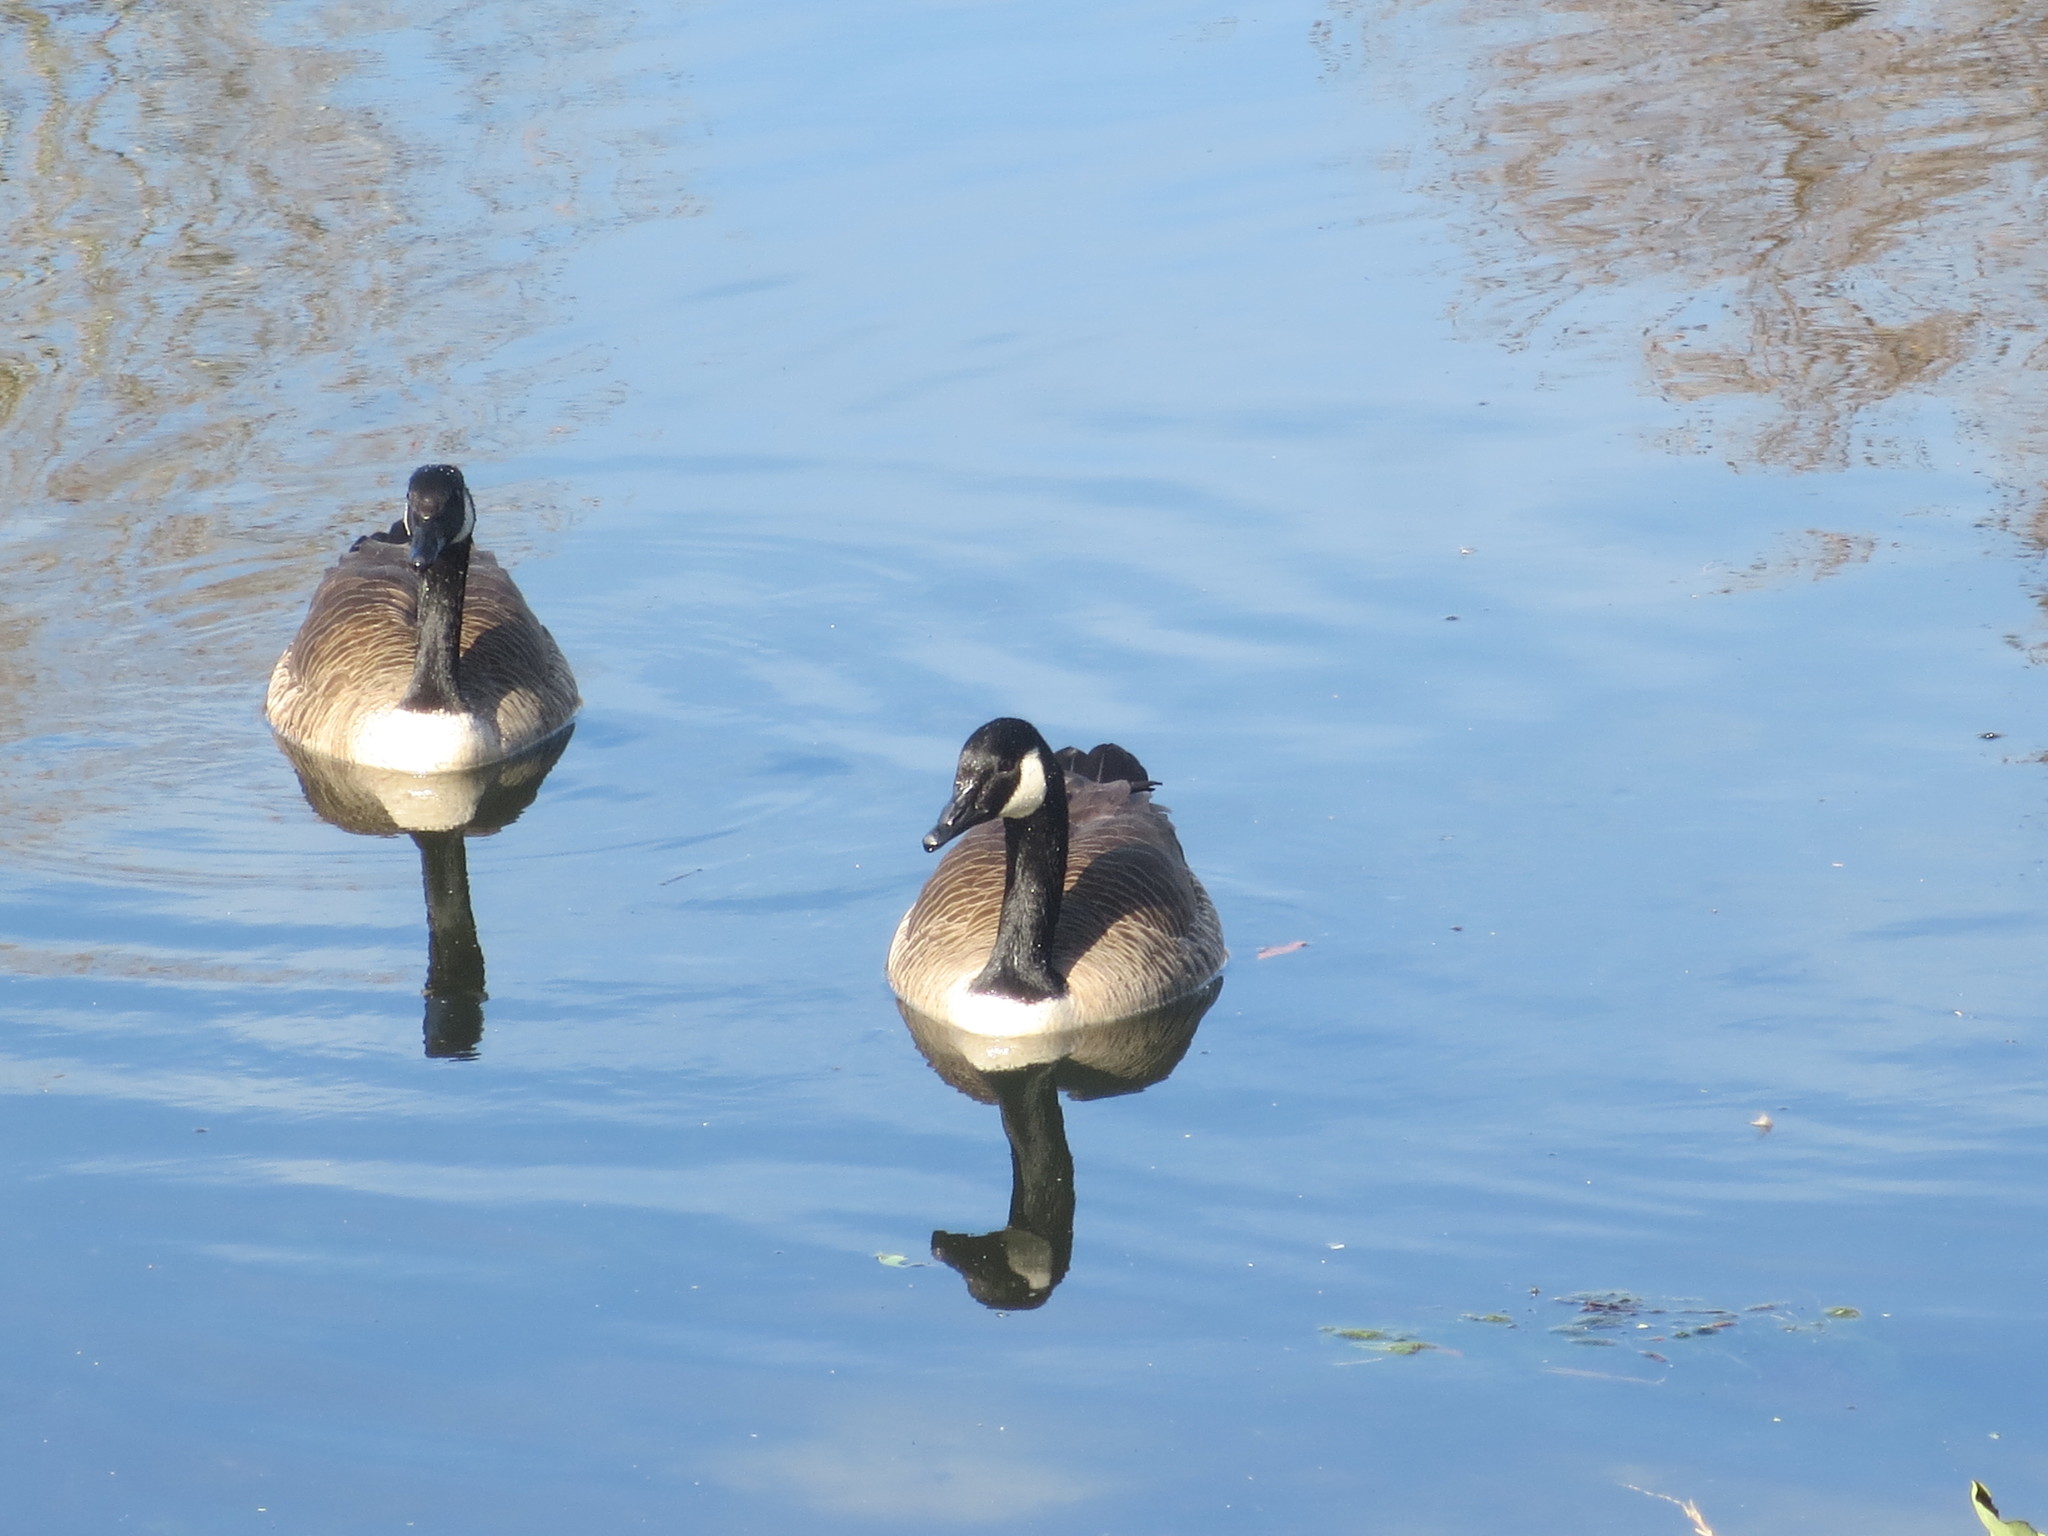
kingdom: Animalia
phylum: Chordata
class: Aves
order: Anseriformes
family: Anatidae
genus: Branta
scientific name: Branta canadensis
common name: Canada goose
